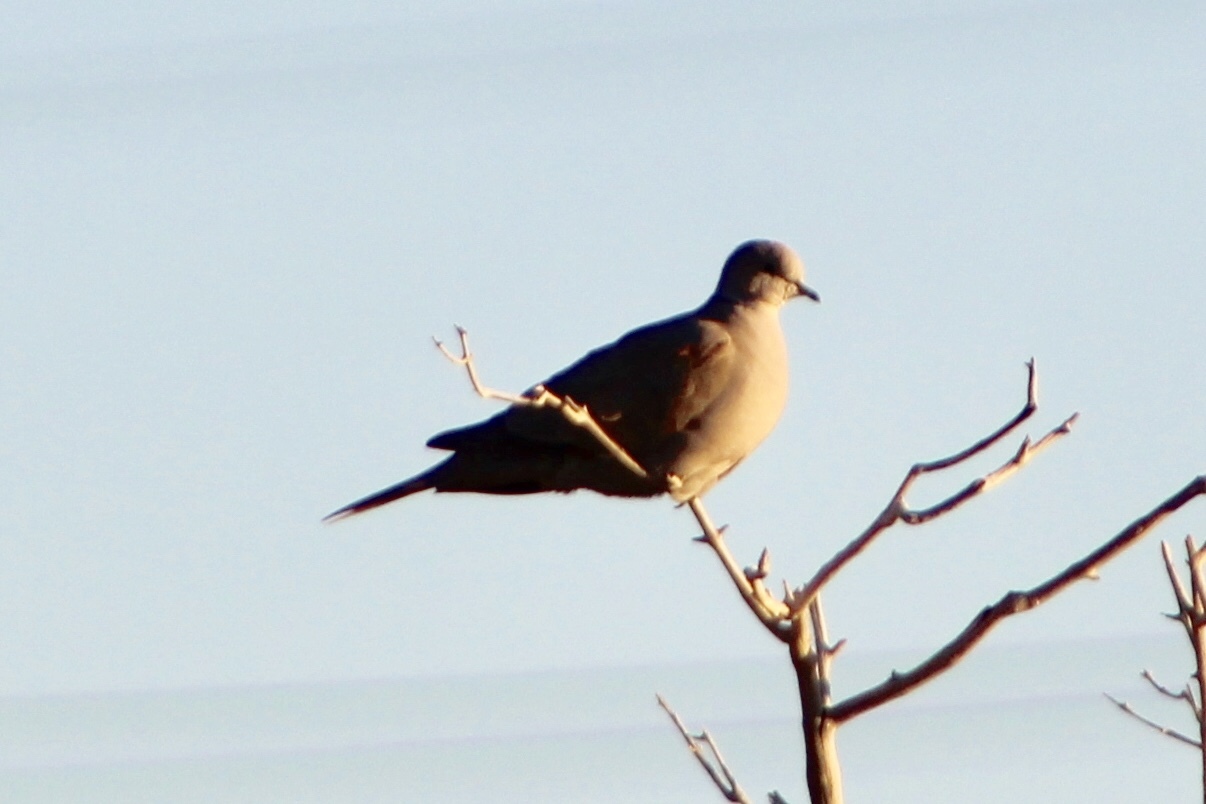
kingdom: Animalia
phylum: Chordata
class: Aves
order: Columbiformes
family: Columbidae
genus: Streptopelia
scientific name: Streptopelia decaocto
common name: Eurasian collared dove
